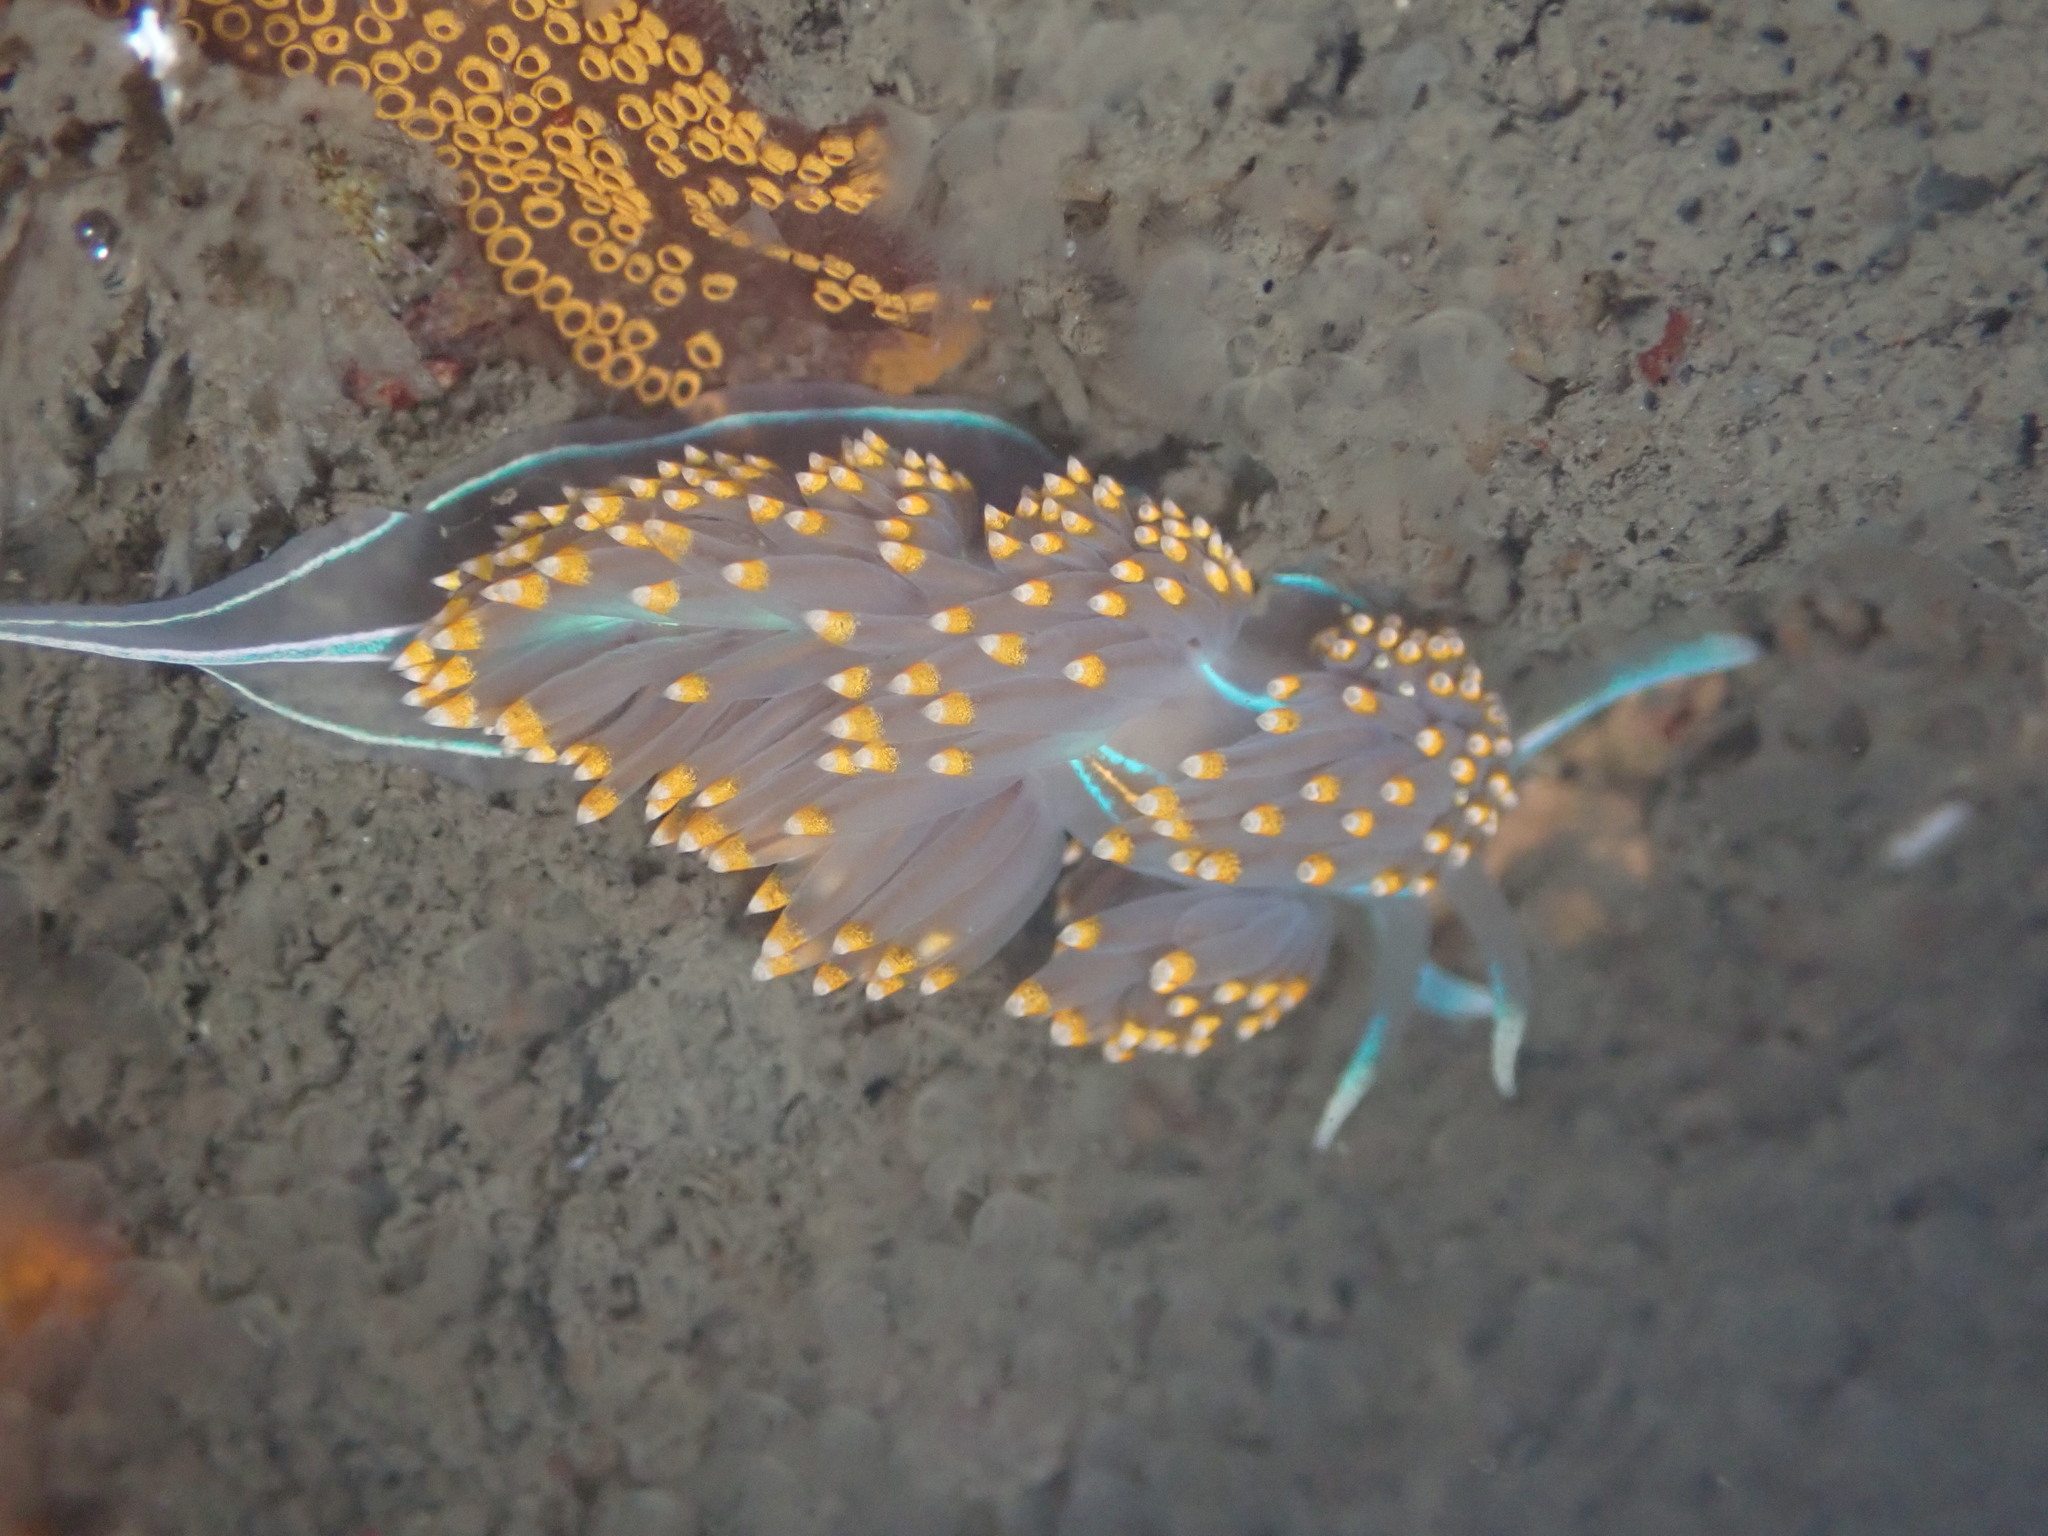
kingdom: Animalia
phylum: Mollusca
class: Gastropoda
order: Nudibranchia
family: Myrrhinidae
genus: Hermissenda
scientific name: Hermissenda opalescens
